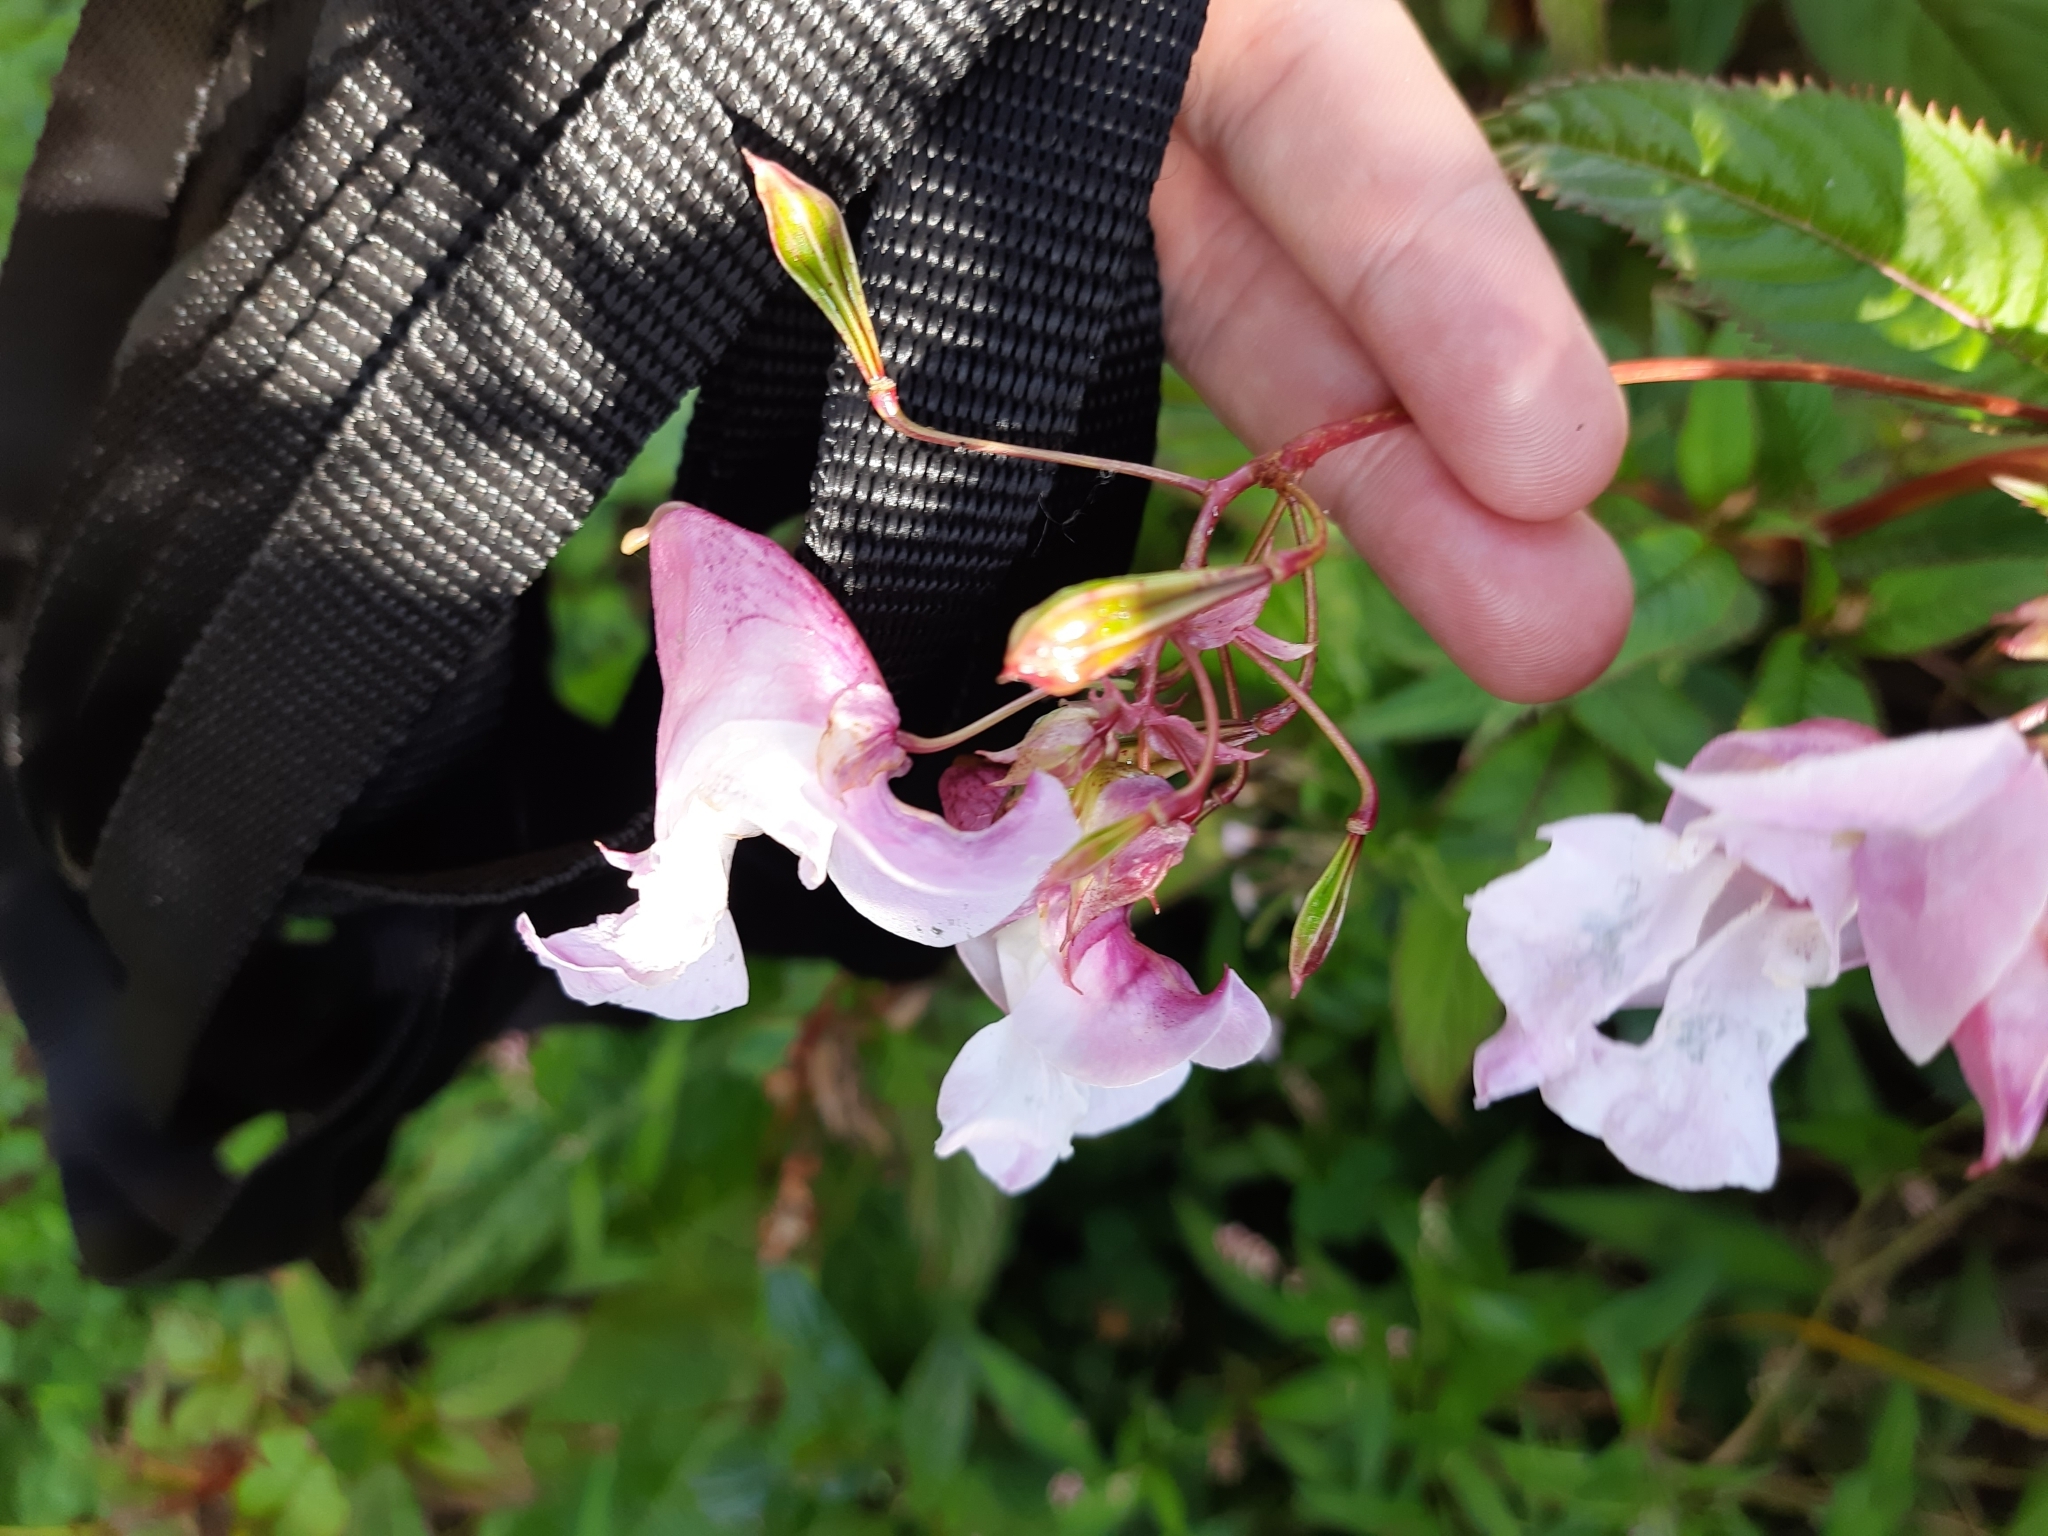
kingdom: Plantae
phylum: Tracheophyta
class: Magnoliopsida
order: Ericales
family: Balsaminaceae
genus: Impatiens
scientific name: Impatiens glandulifera
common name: Himalayan balsam
